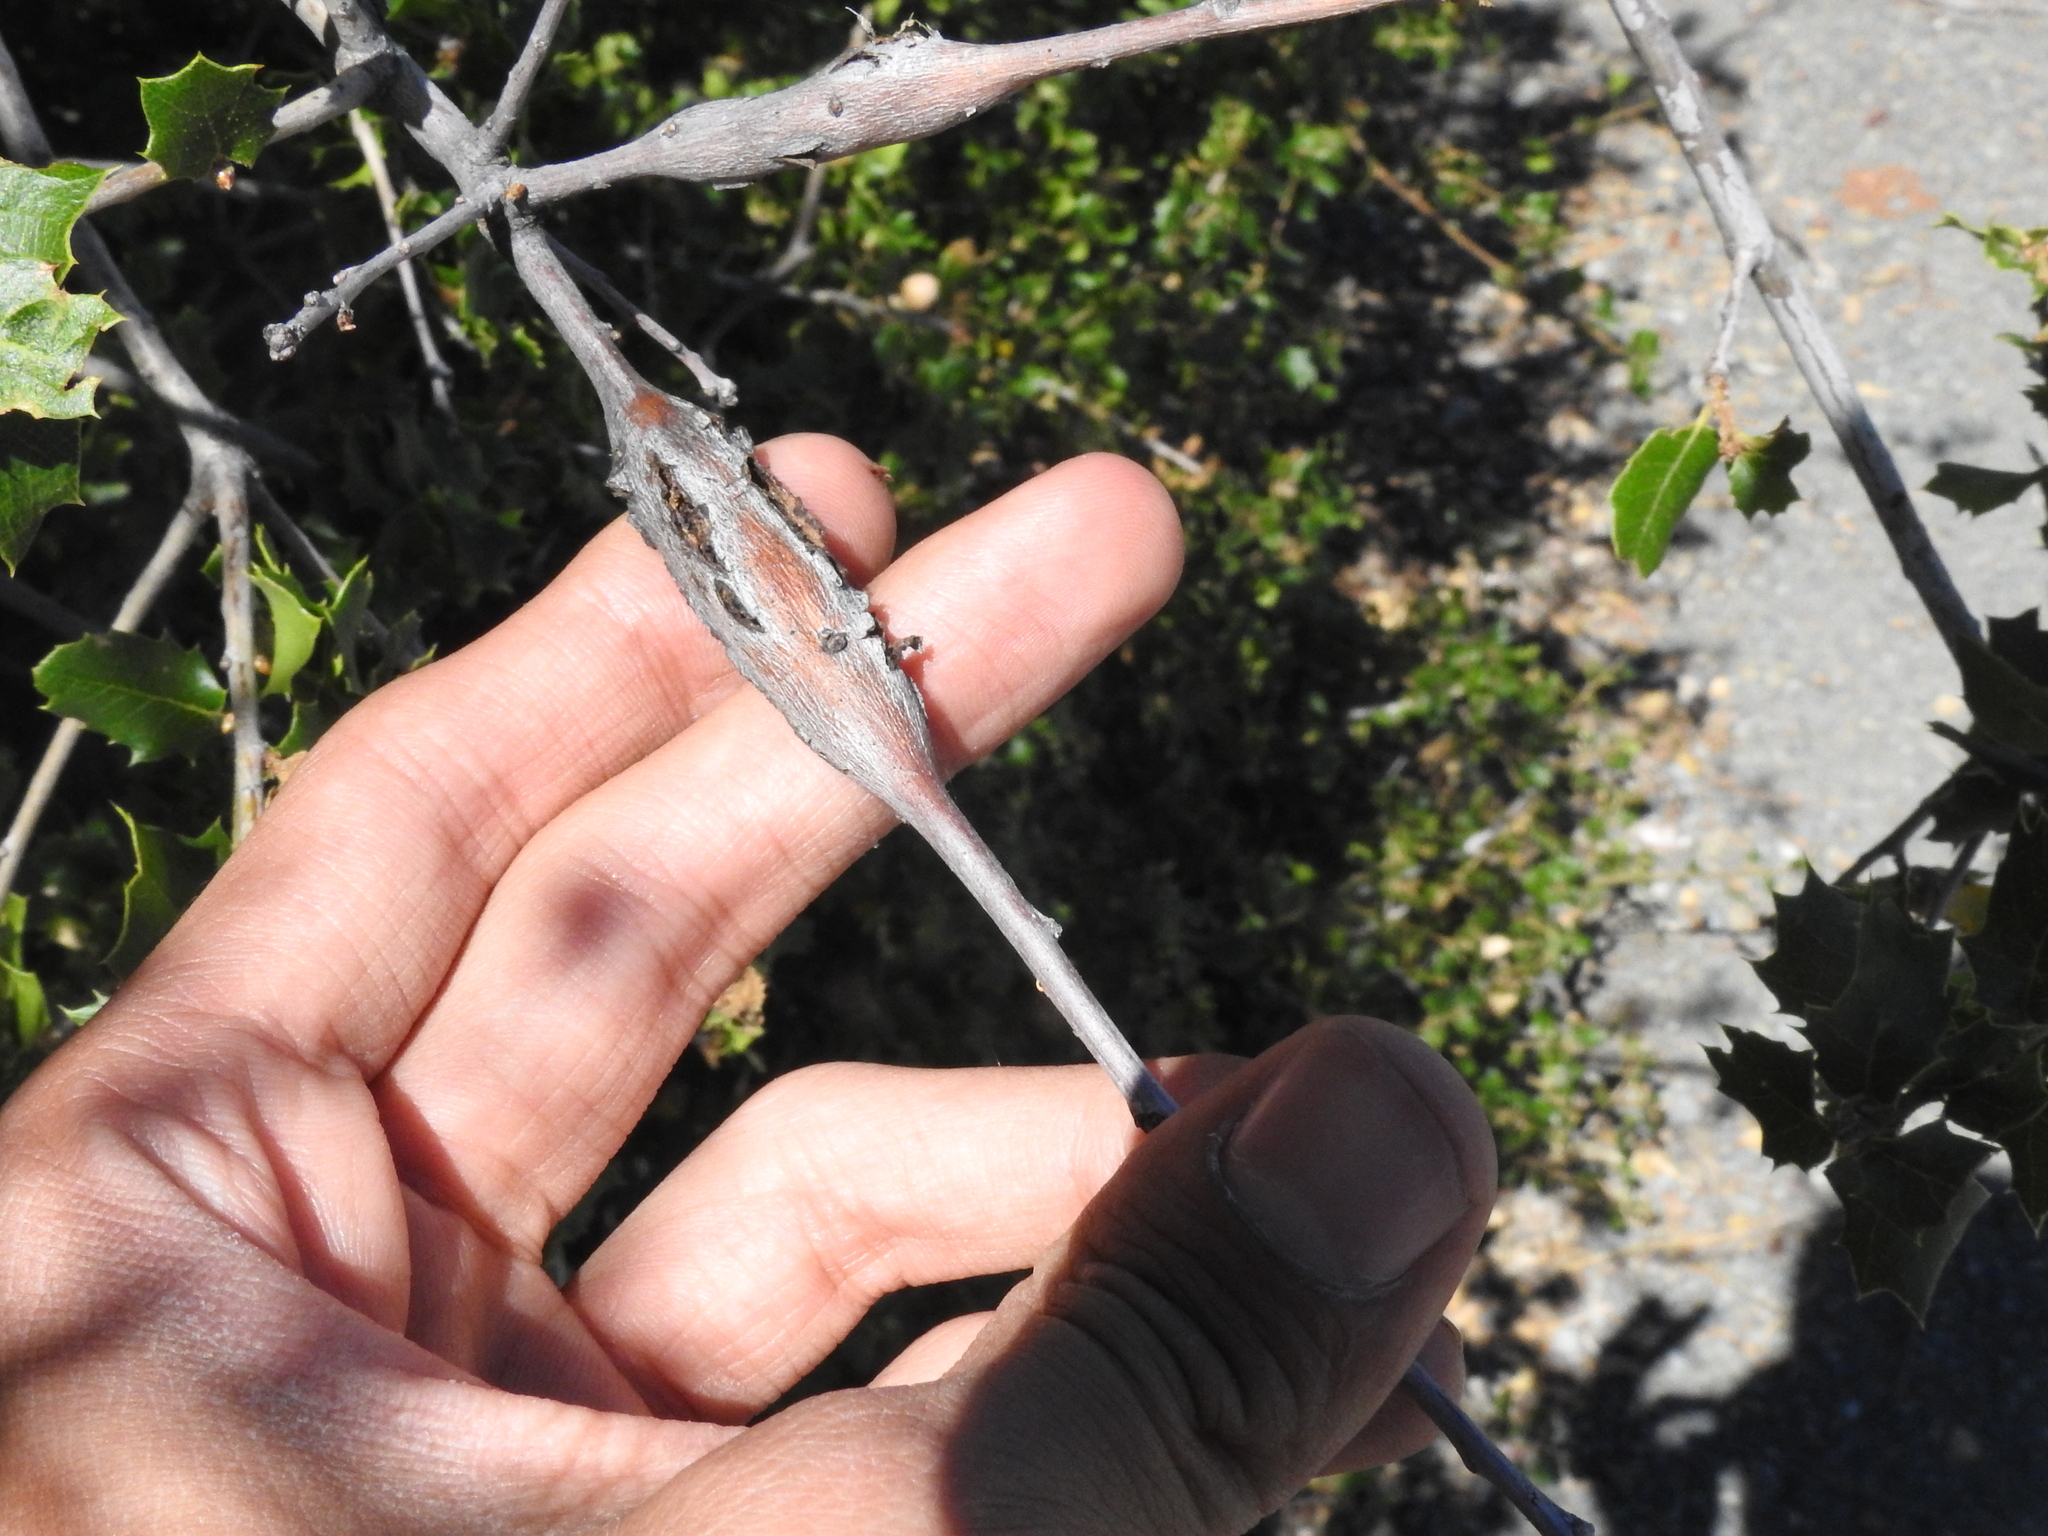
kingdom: Animalia
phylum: Arthropoda
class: Insecta
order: Hymenoptera
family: Cynipidae
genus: Callirhytis
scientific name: Callirhytis
